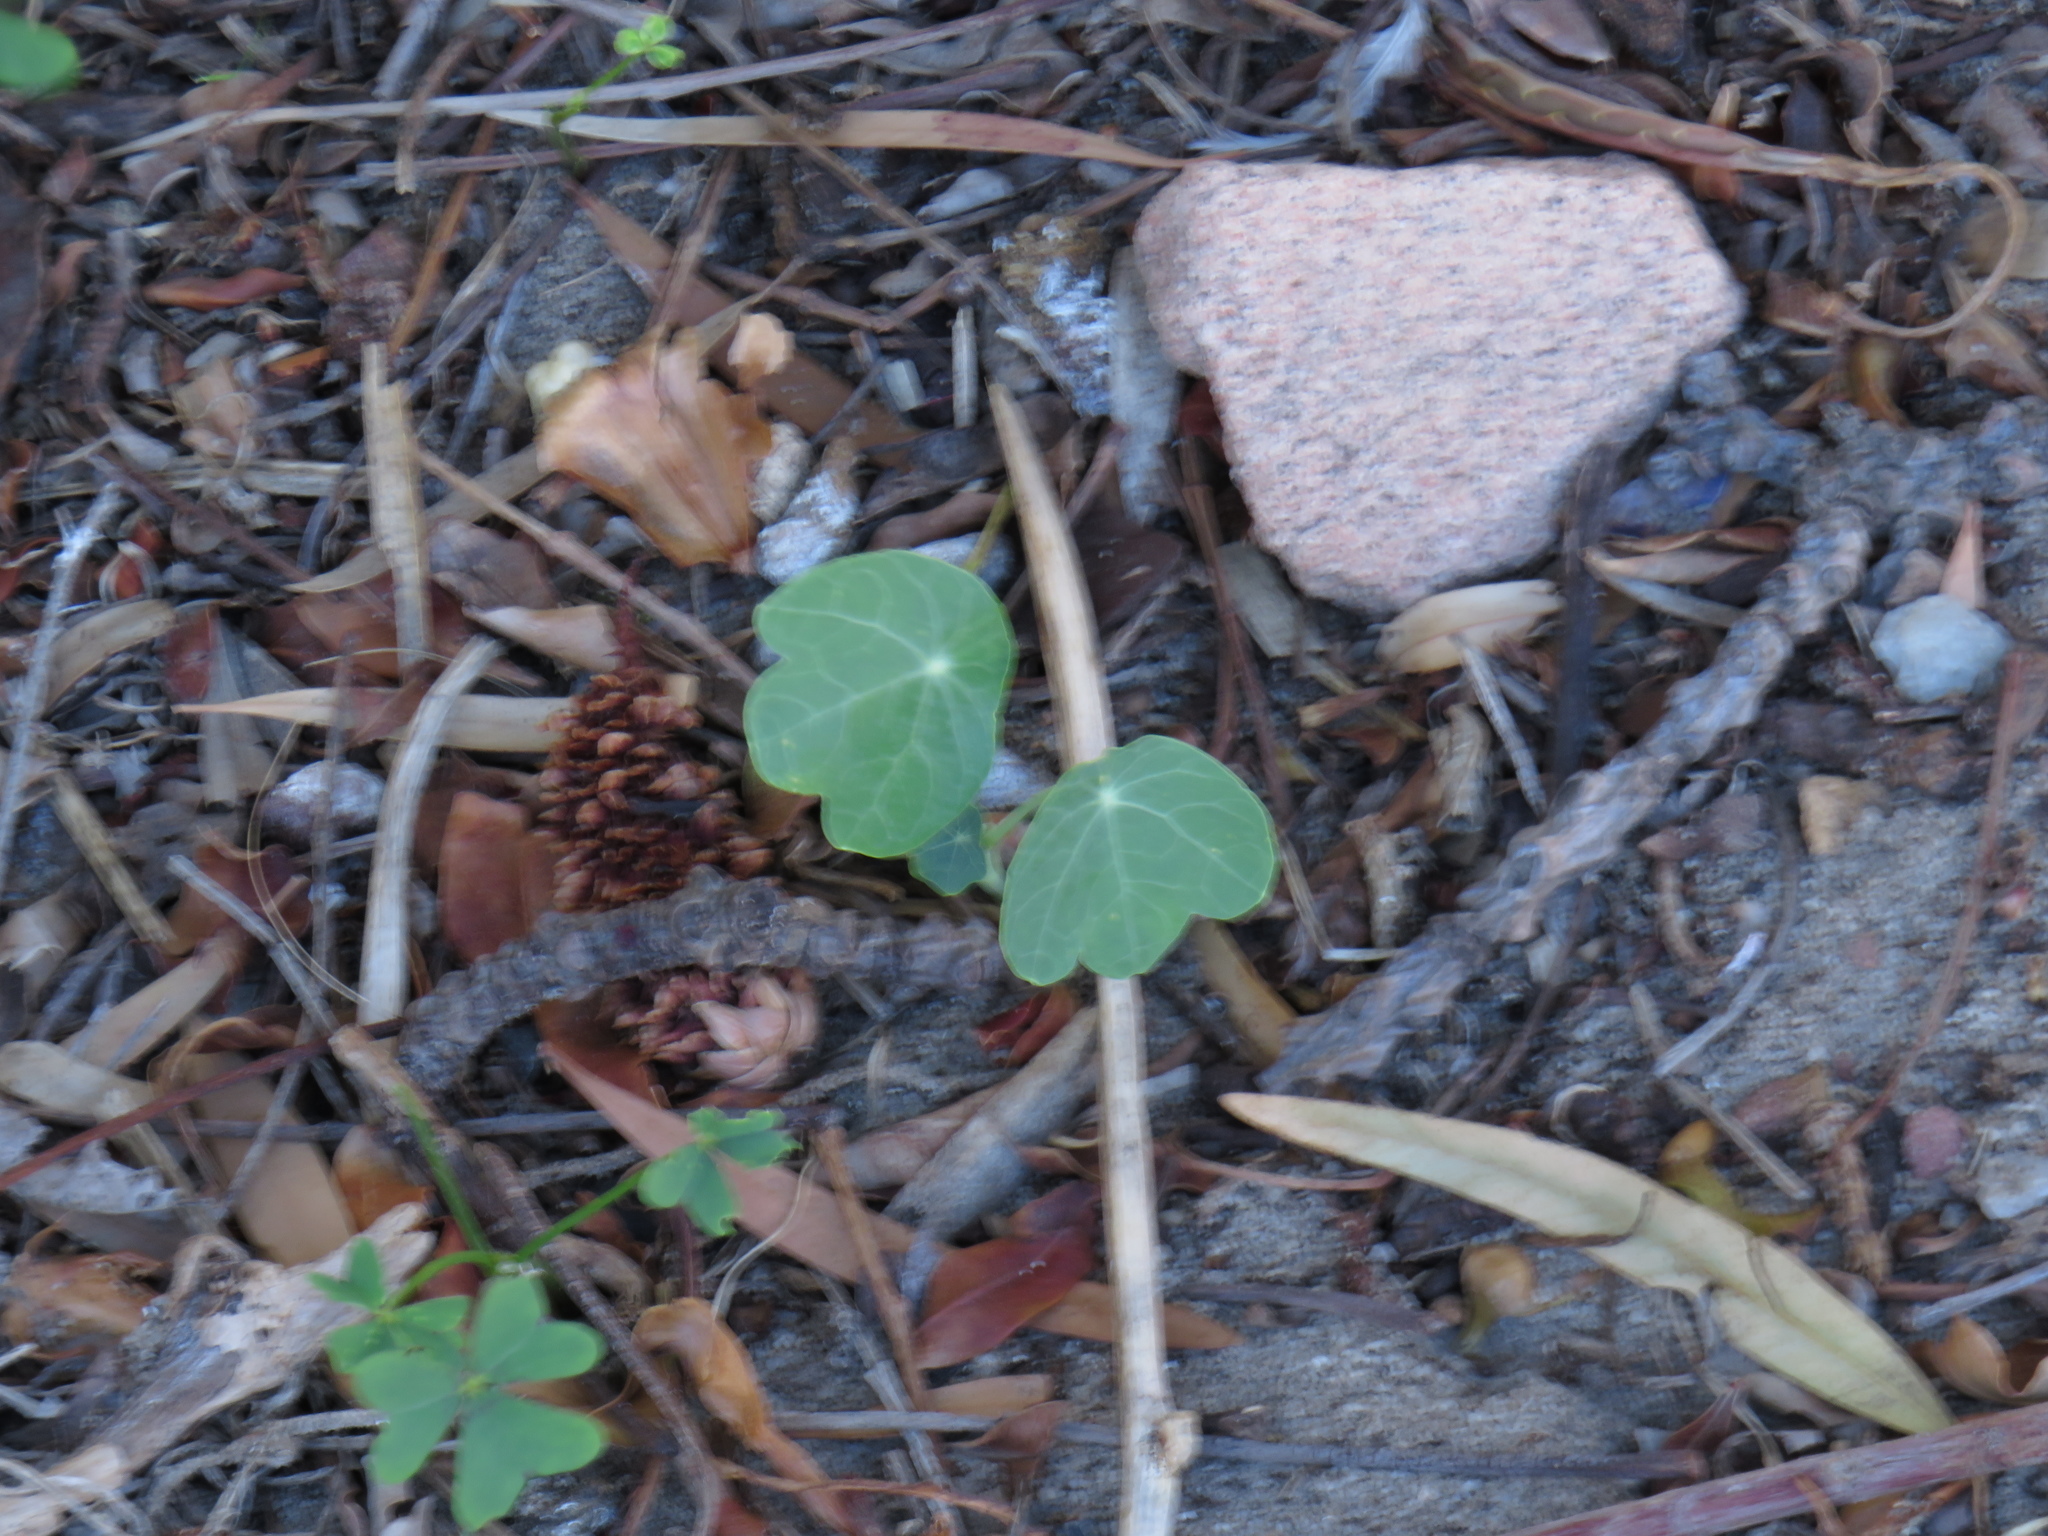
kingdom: Plantae
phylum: Tracheophyta
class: Magnoliopsida
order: Brassicales
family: Tropaeolaceae
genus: Tropaeolum
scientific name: Tropaeolum majus
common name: Nasturtium
